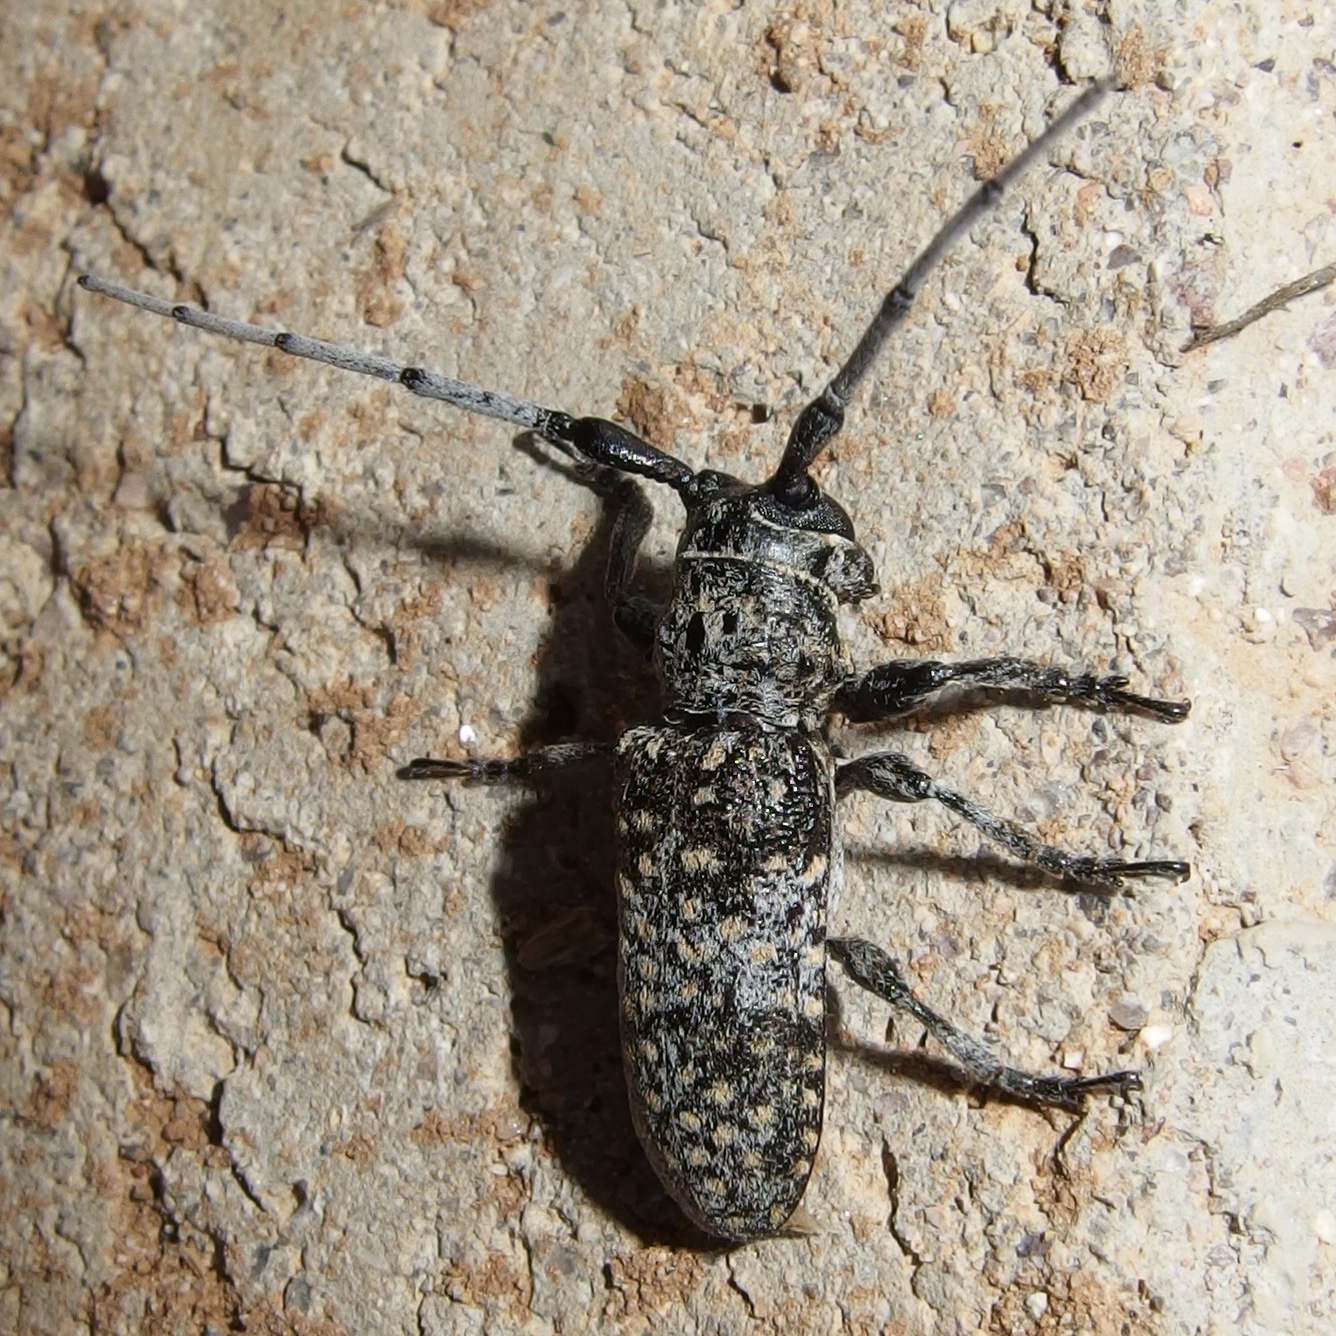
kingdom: Animalia
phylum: Arthropoda
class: Insecta
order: Coleoptera
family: Cerambycidae
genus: Oncideres
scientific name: Oncideres rhodosticta
